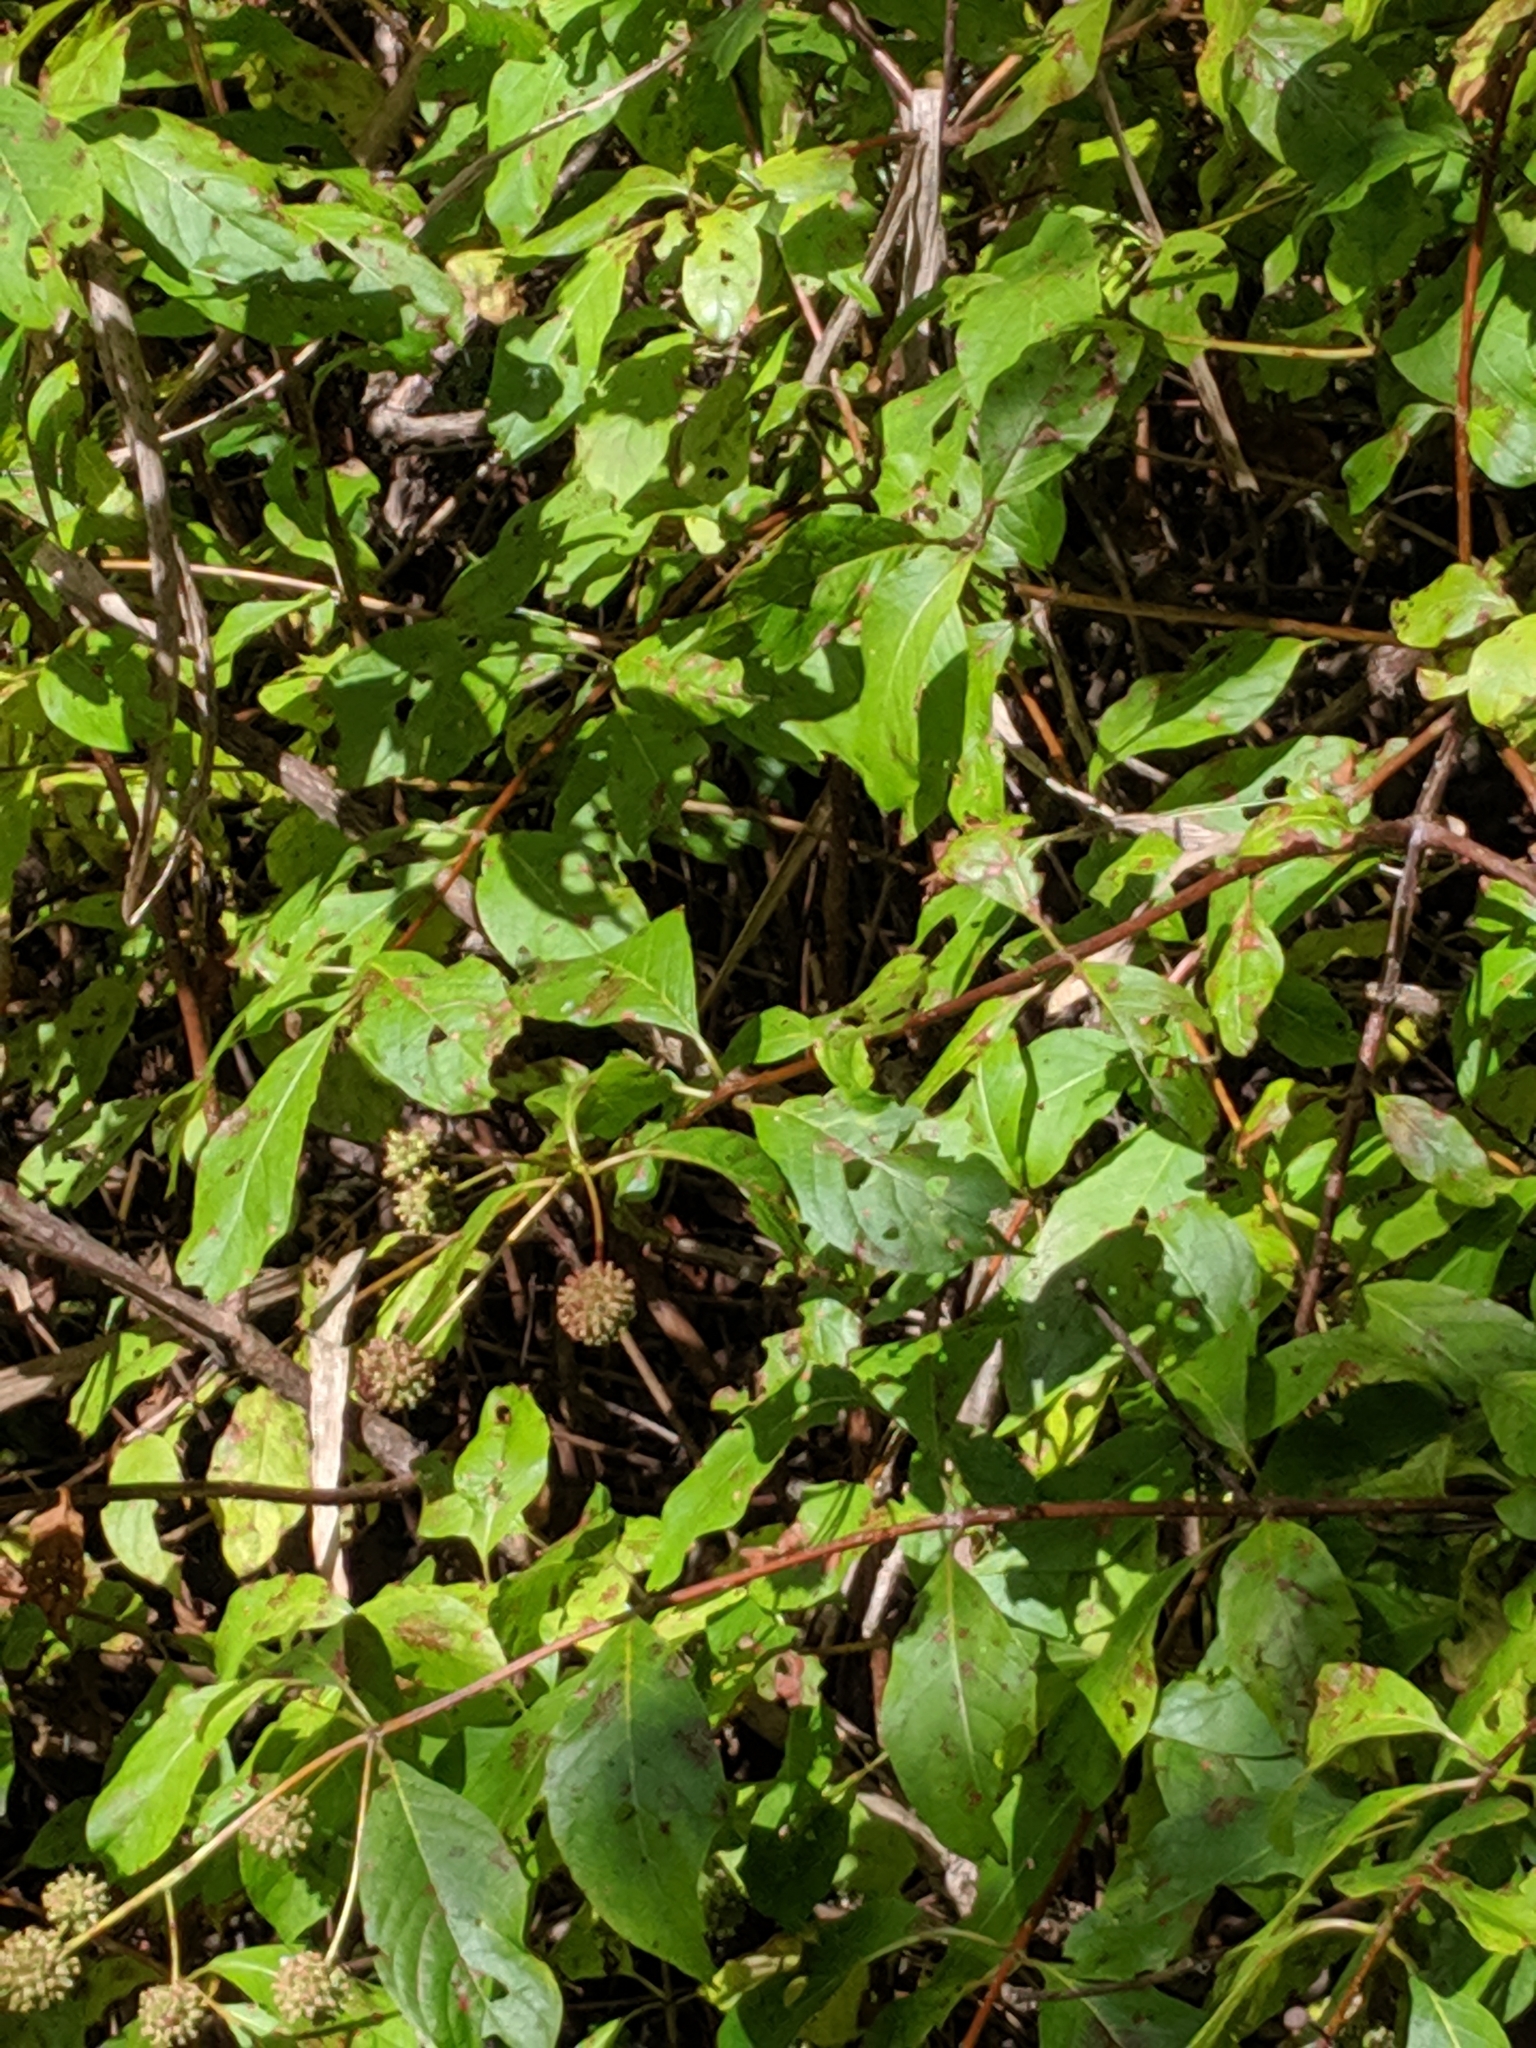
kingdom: Plantae
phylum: Tracheophyta
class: Magnoliopsida
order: Gentianales
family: Rubiaceae
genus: Cephalanthus
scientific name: Cephalanthus occidentalis
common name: Button-willow
